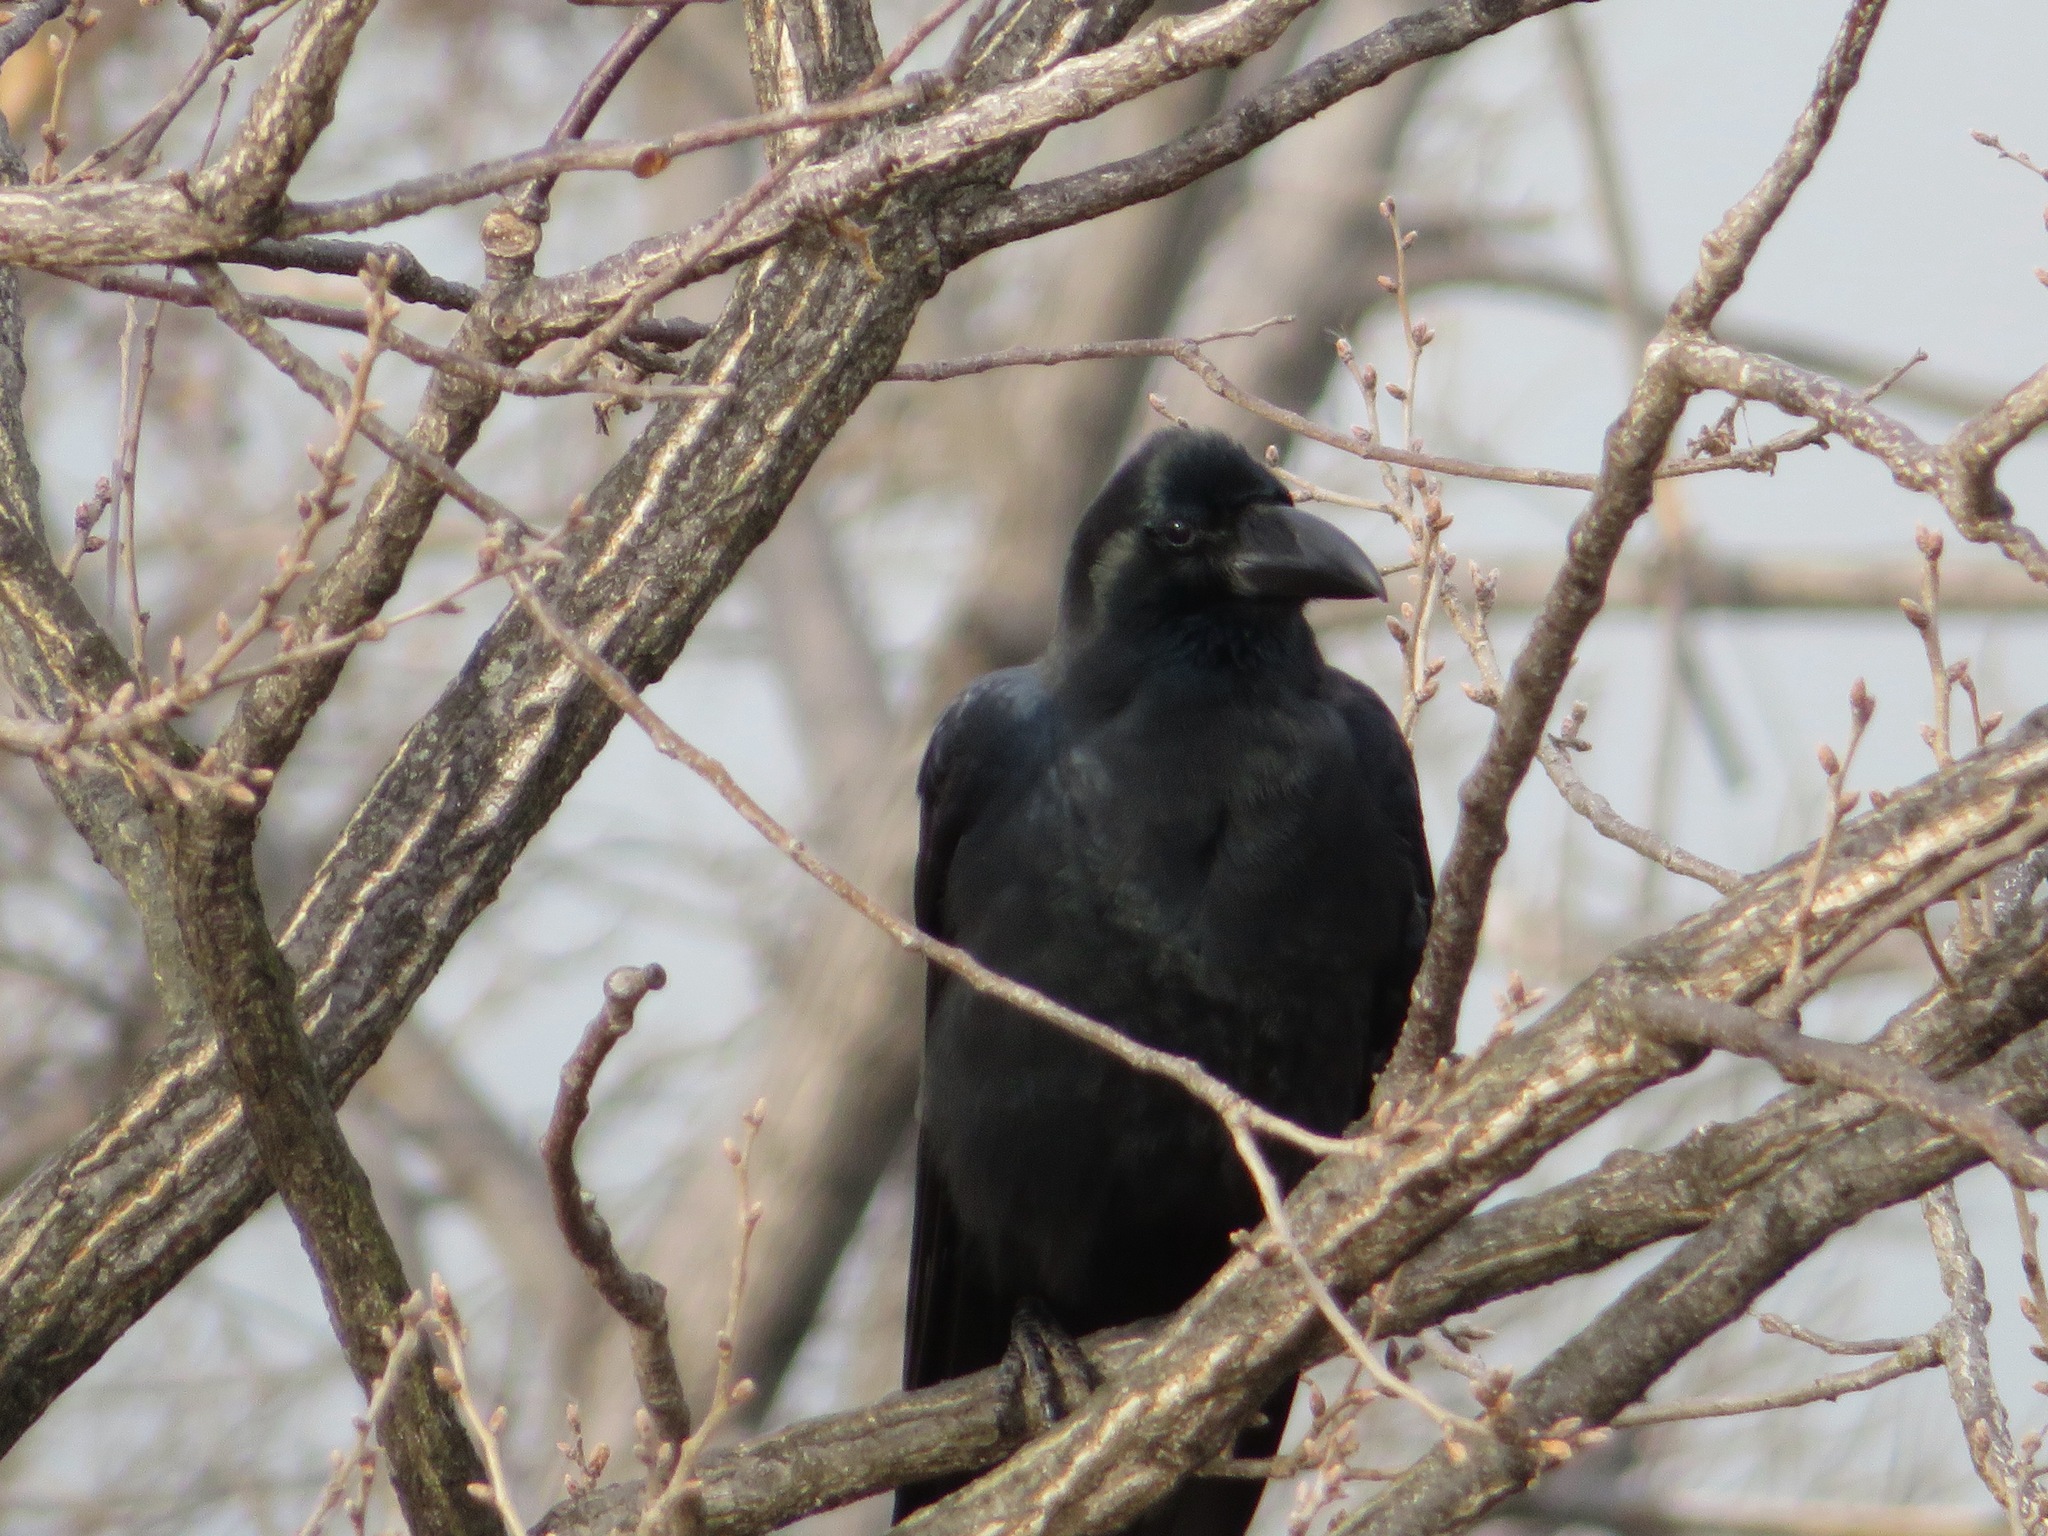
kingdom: Animalia
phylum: Chordata
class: Aves
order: Passeriformes
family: Corvidae
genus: Corvus
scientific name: Corvus macrorhynchos
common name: Large-billed crow
